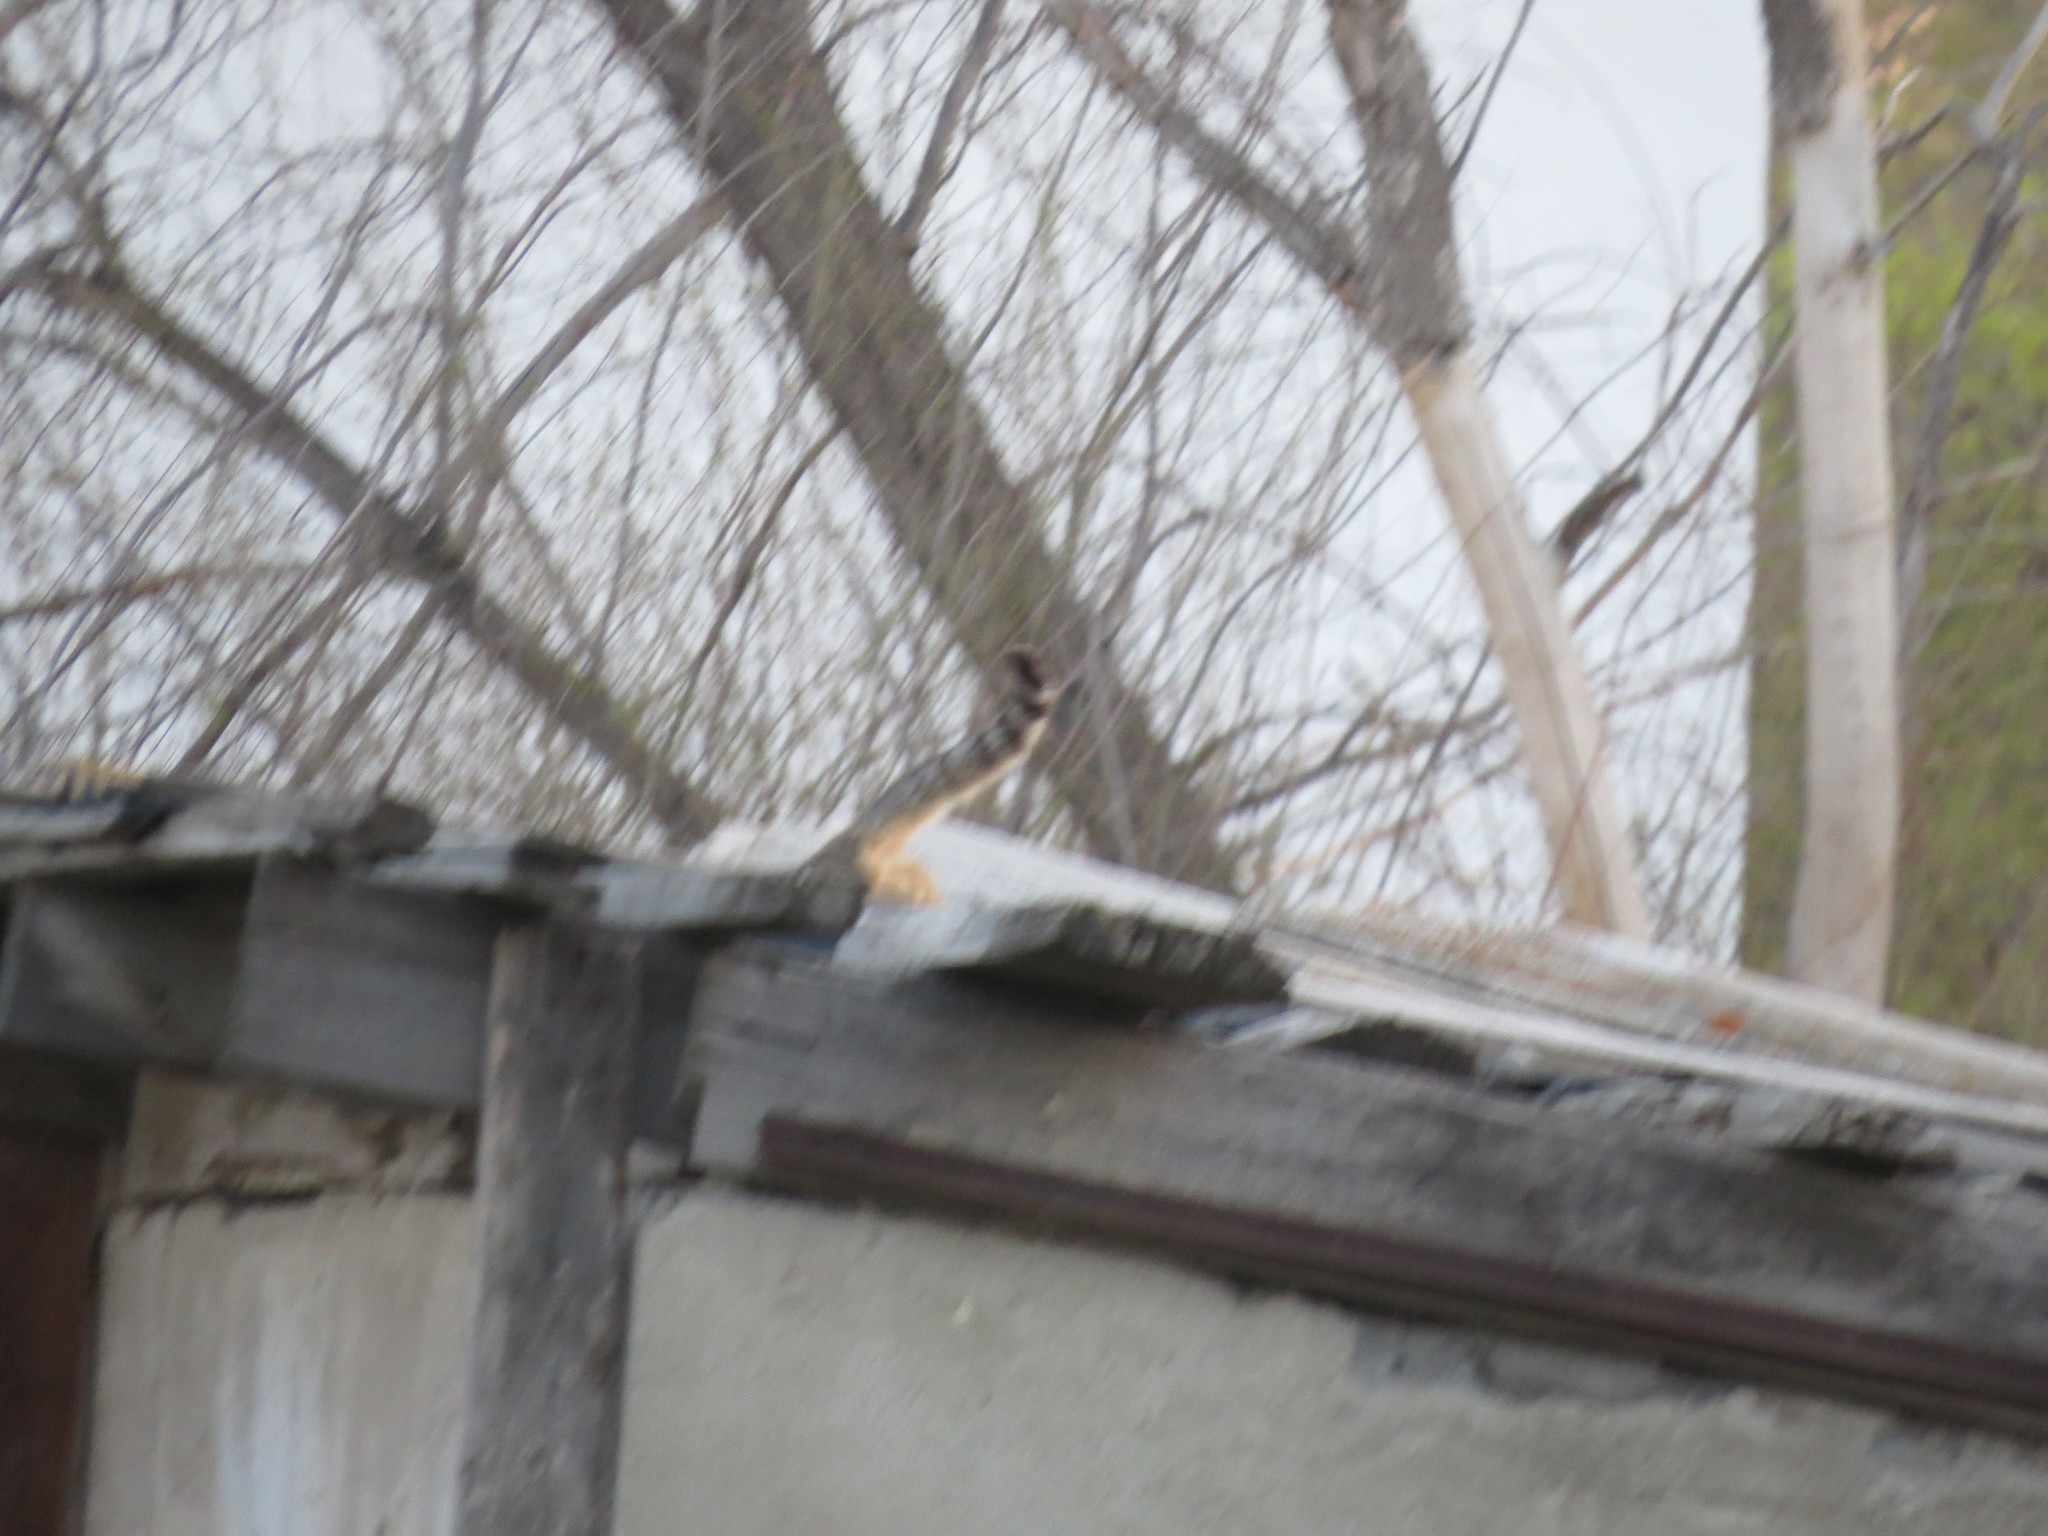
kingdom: Animalia
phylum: Chordata
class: Mammalia
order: Carnivora
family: Felidae
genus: Felis
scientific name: Felis catus
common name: Domestic cat
